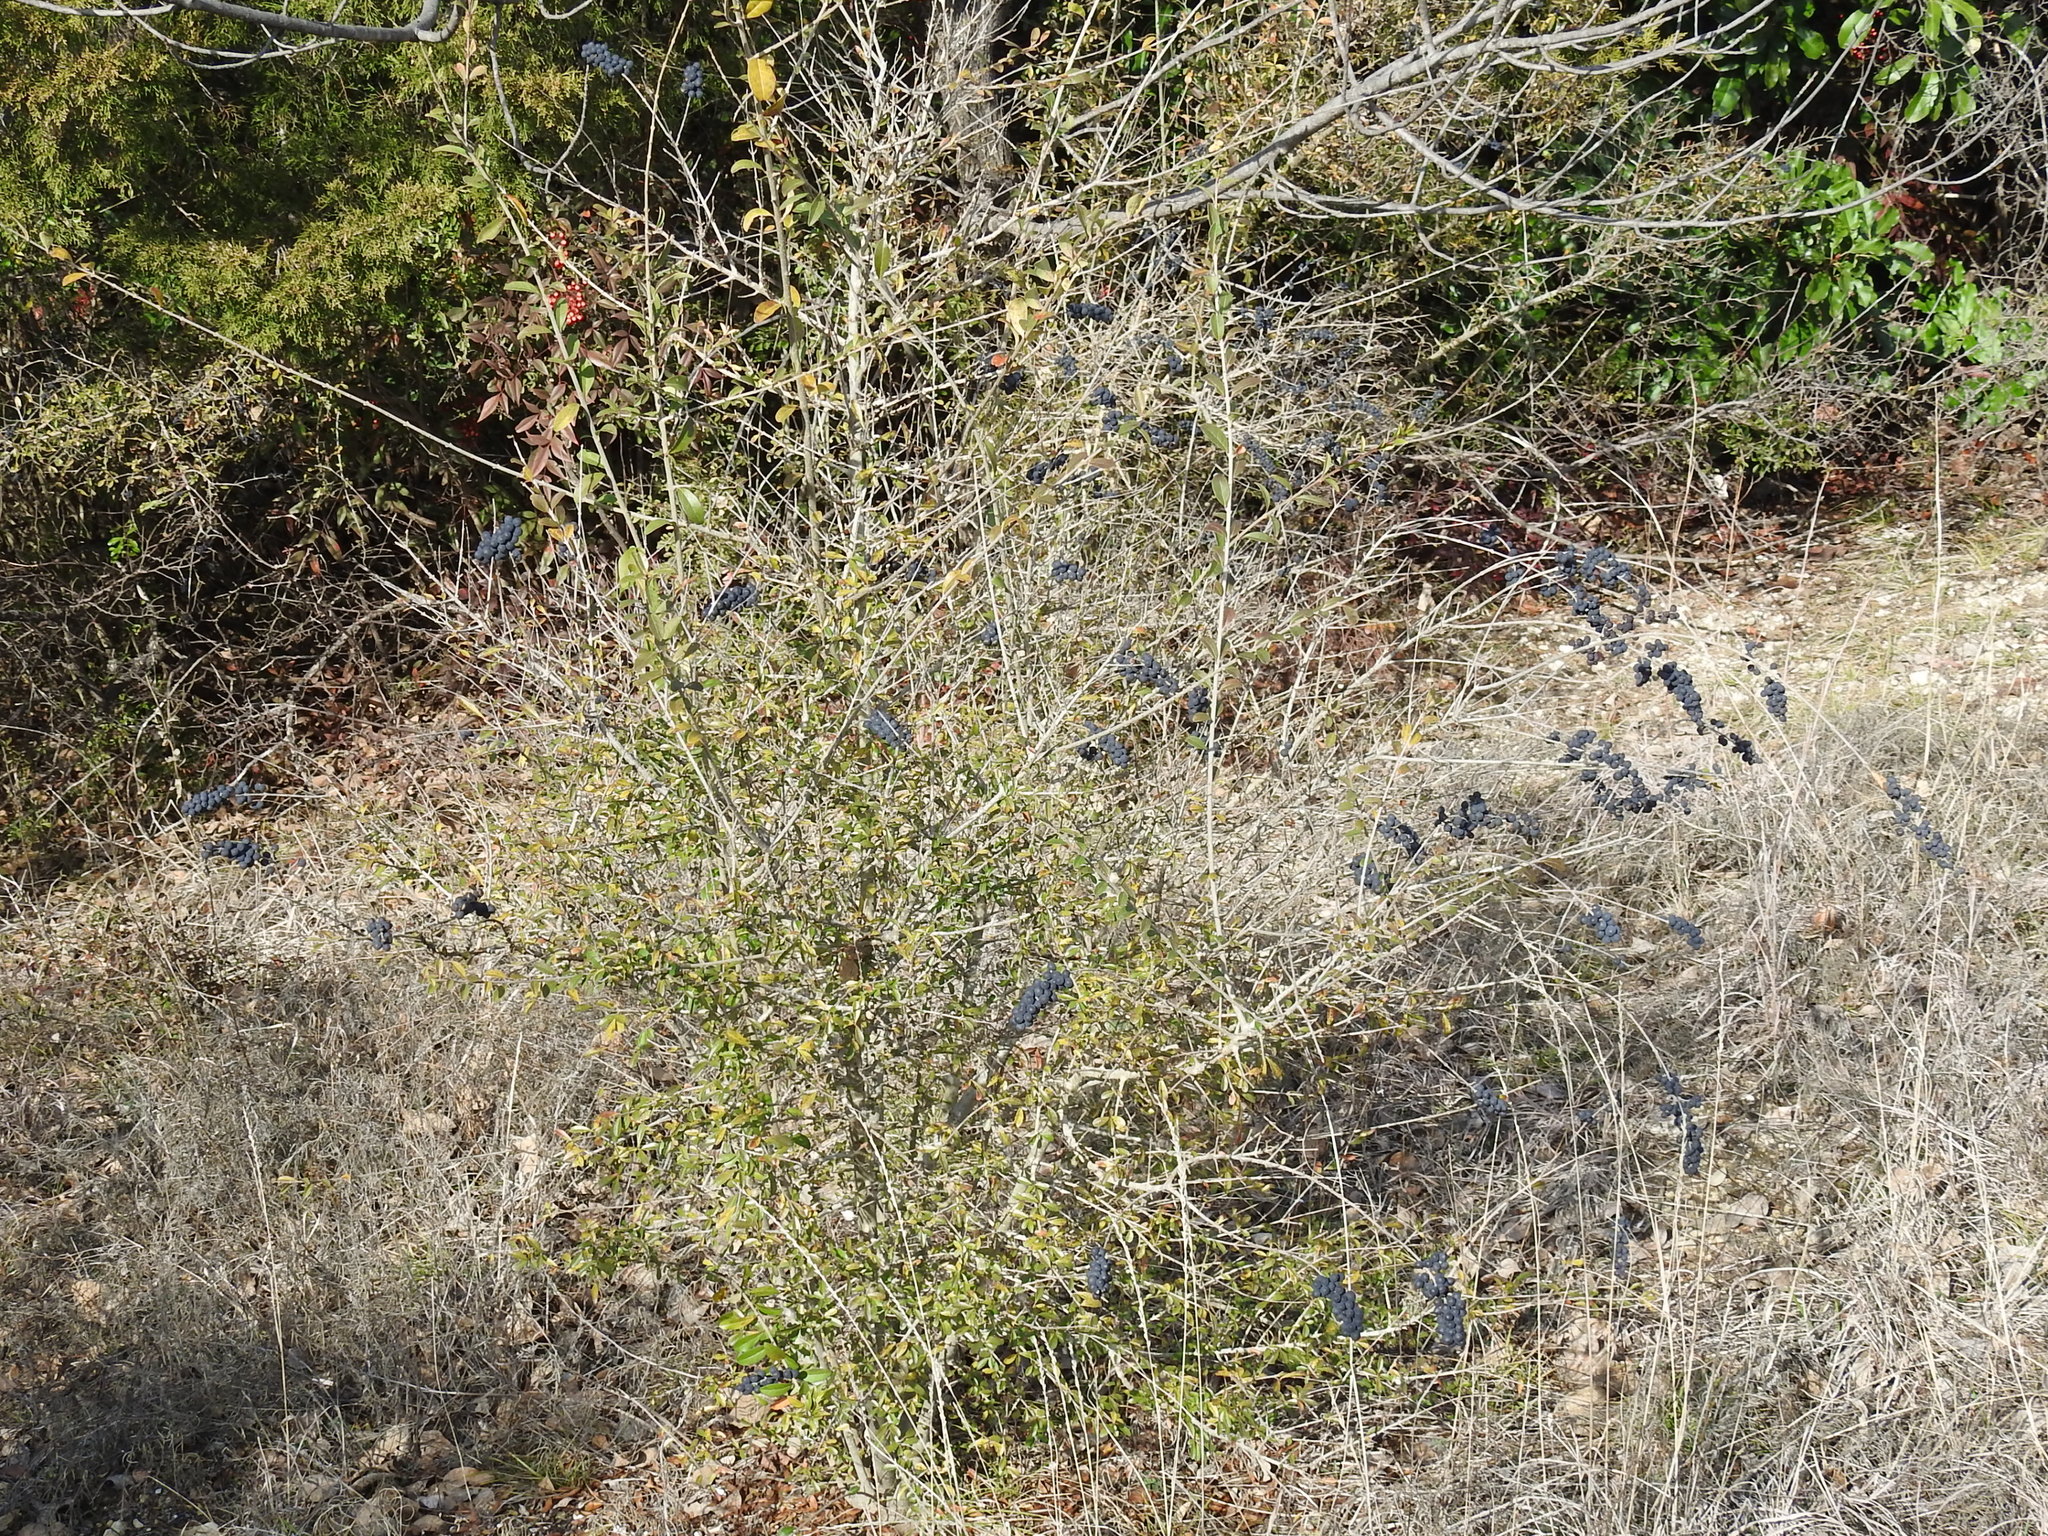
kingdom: Plantae
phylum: Tracheophyta
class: Magnoliopsida
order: Lamiales
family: Oleaceae
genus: Ligustrum
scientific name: Ligustrum quihoui
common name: Waxyleaf privet
